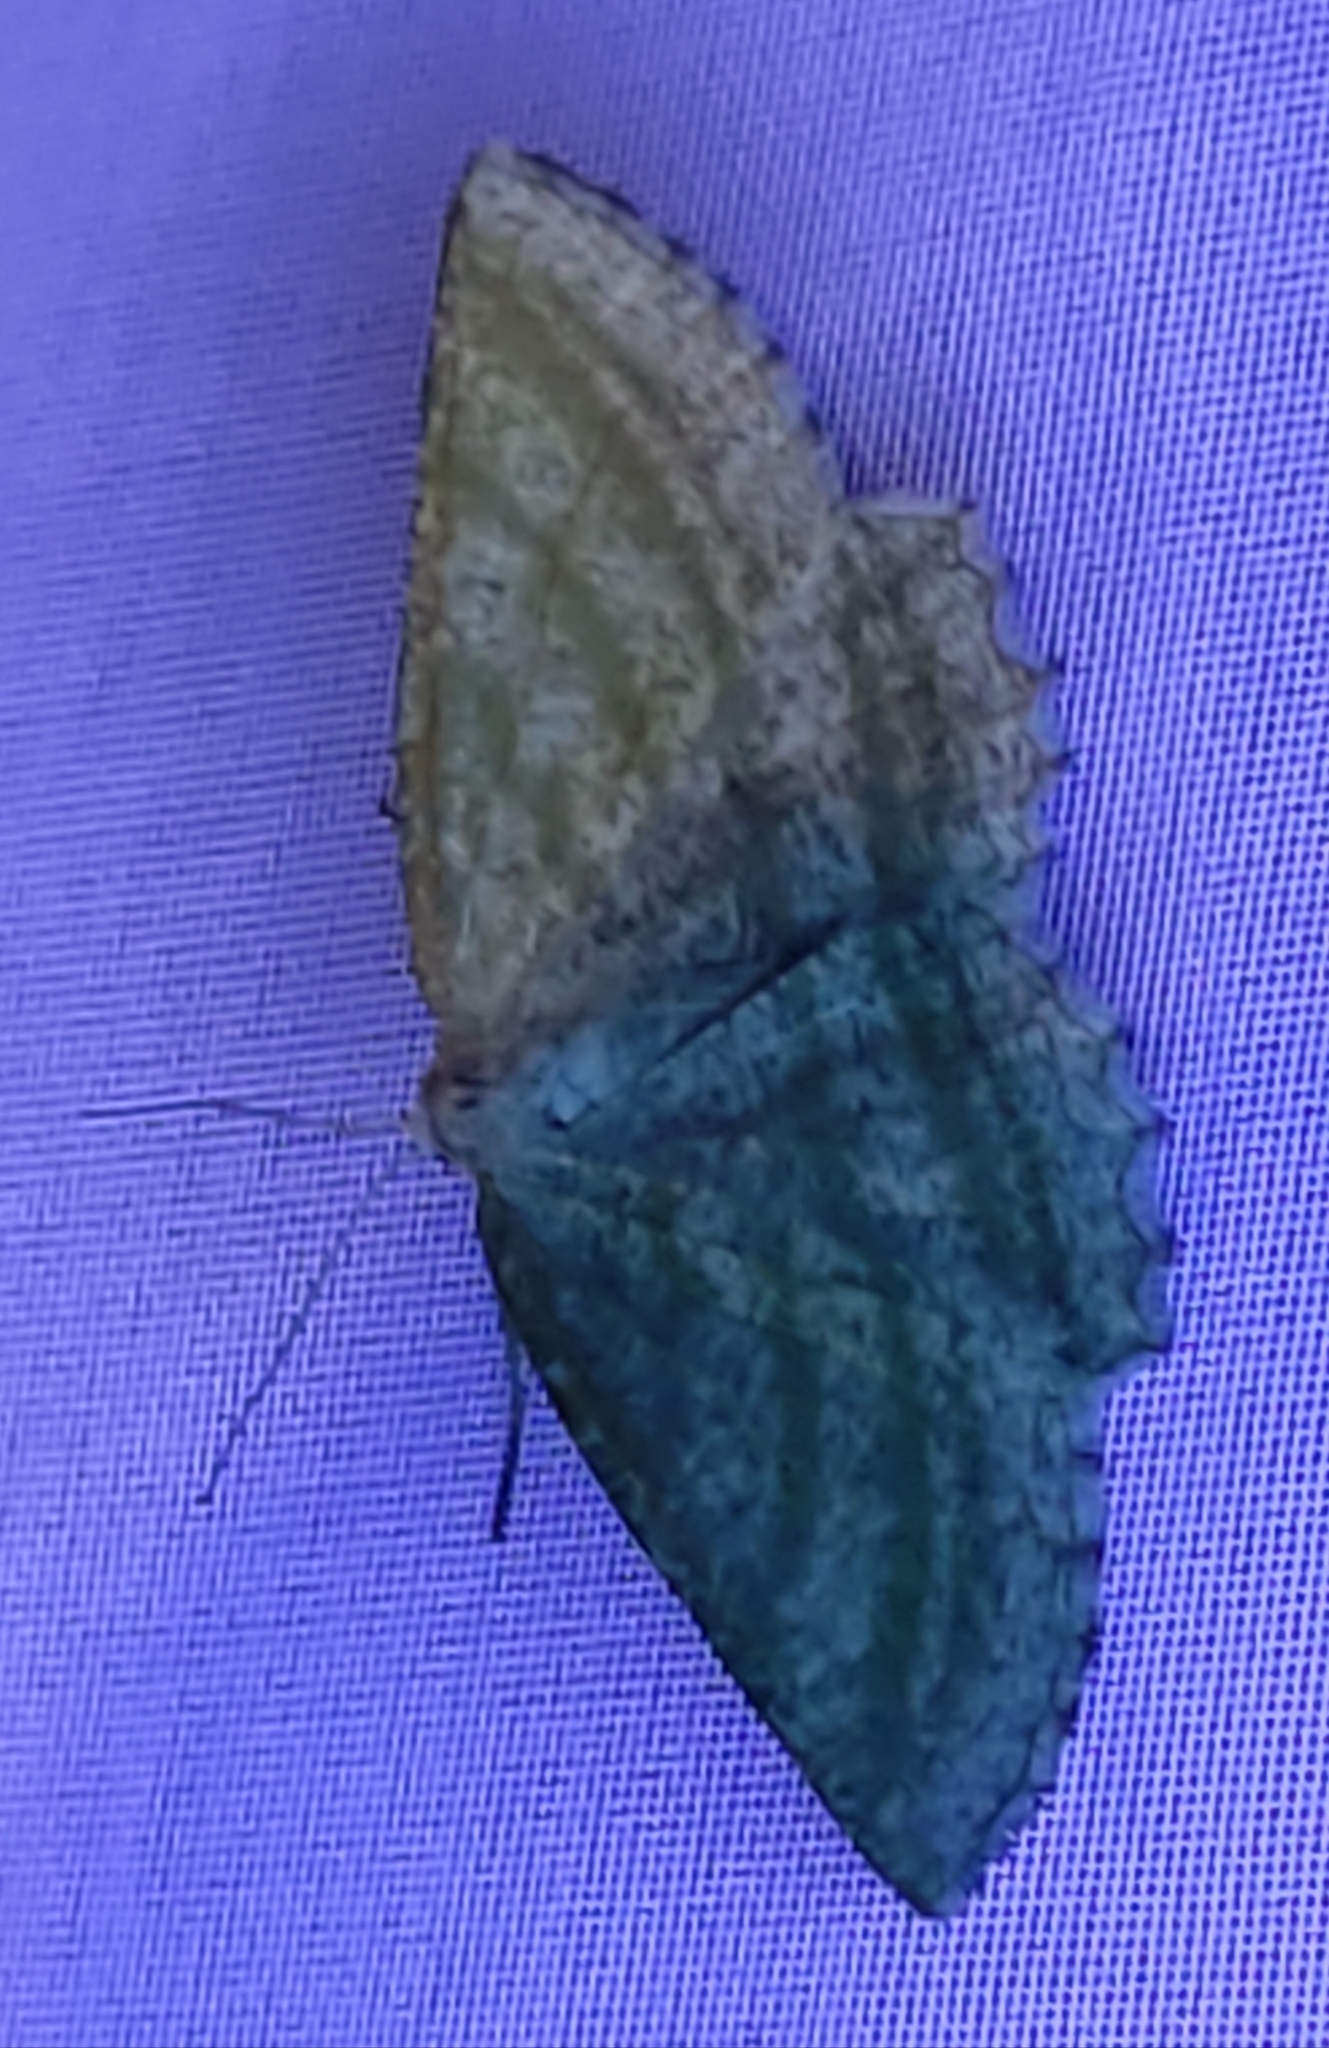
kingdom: Animalia
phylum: Arthropoda
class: Insecta
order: Lepidoptera
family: Geometridae
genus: Perconia
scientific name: Perconia strigillaria
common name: Grass wave
